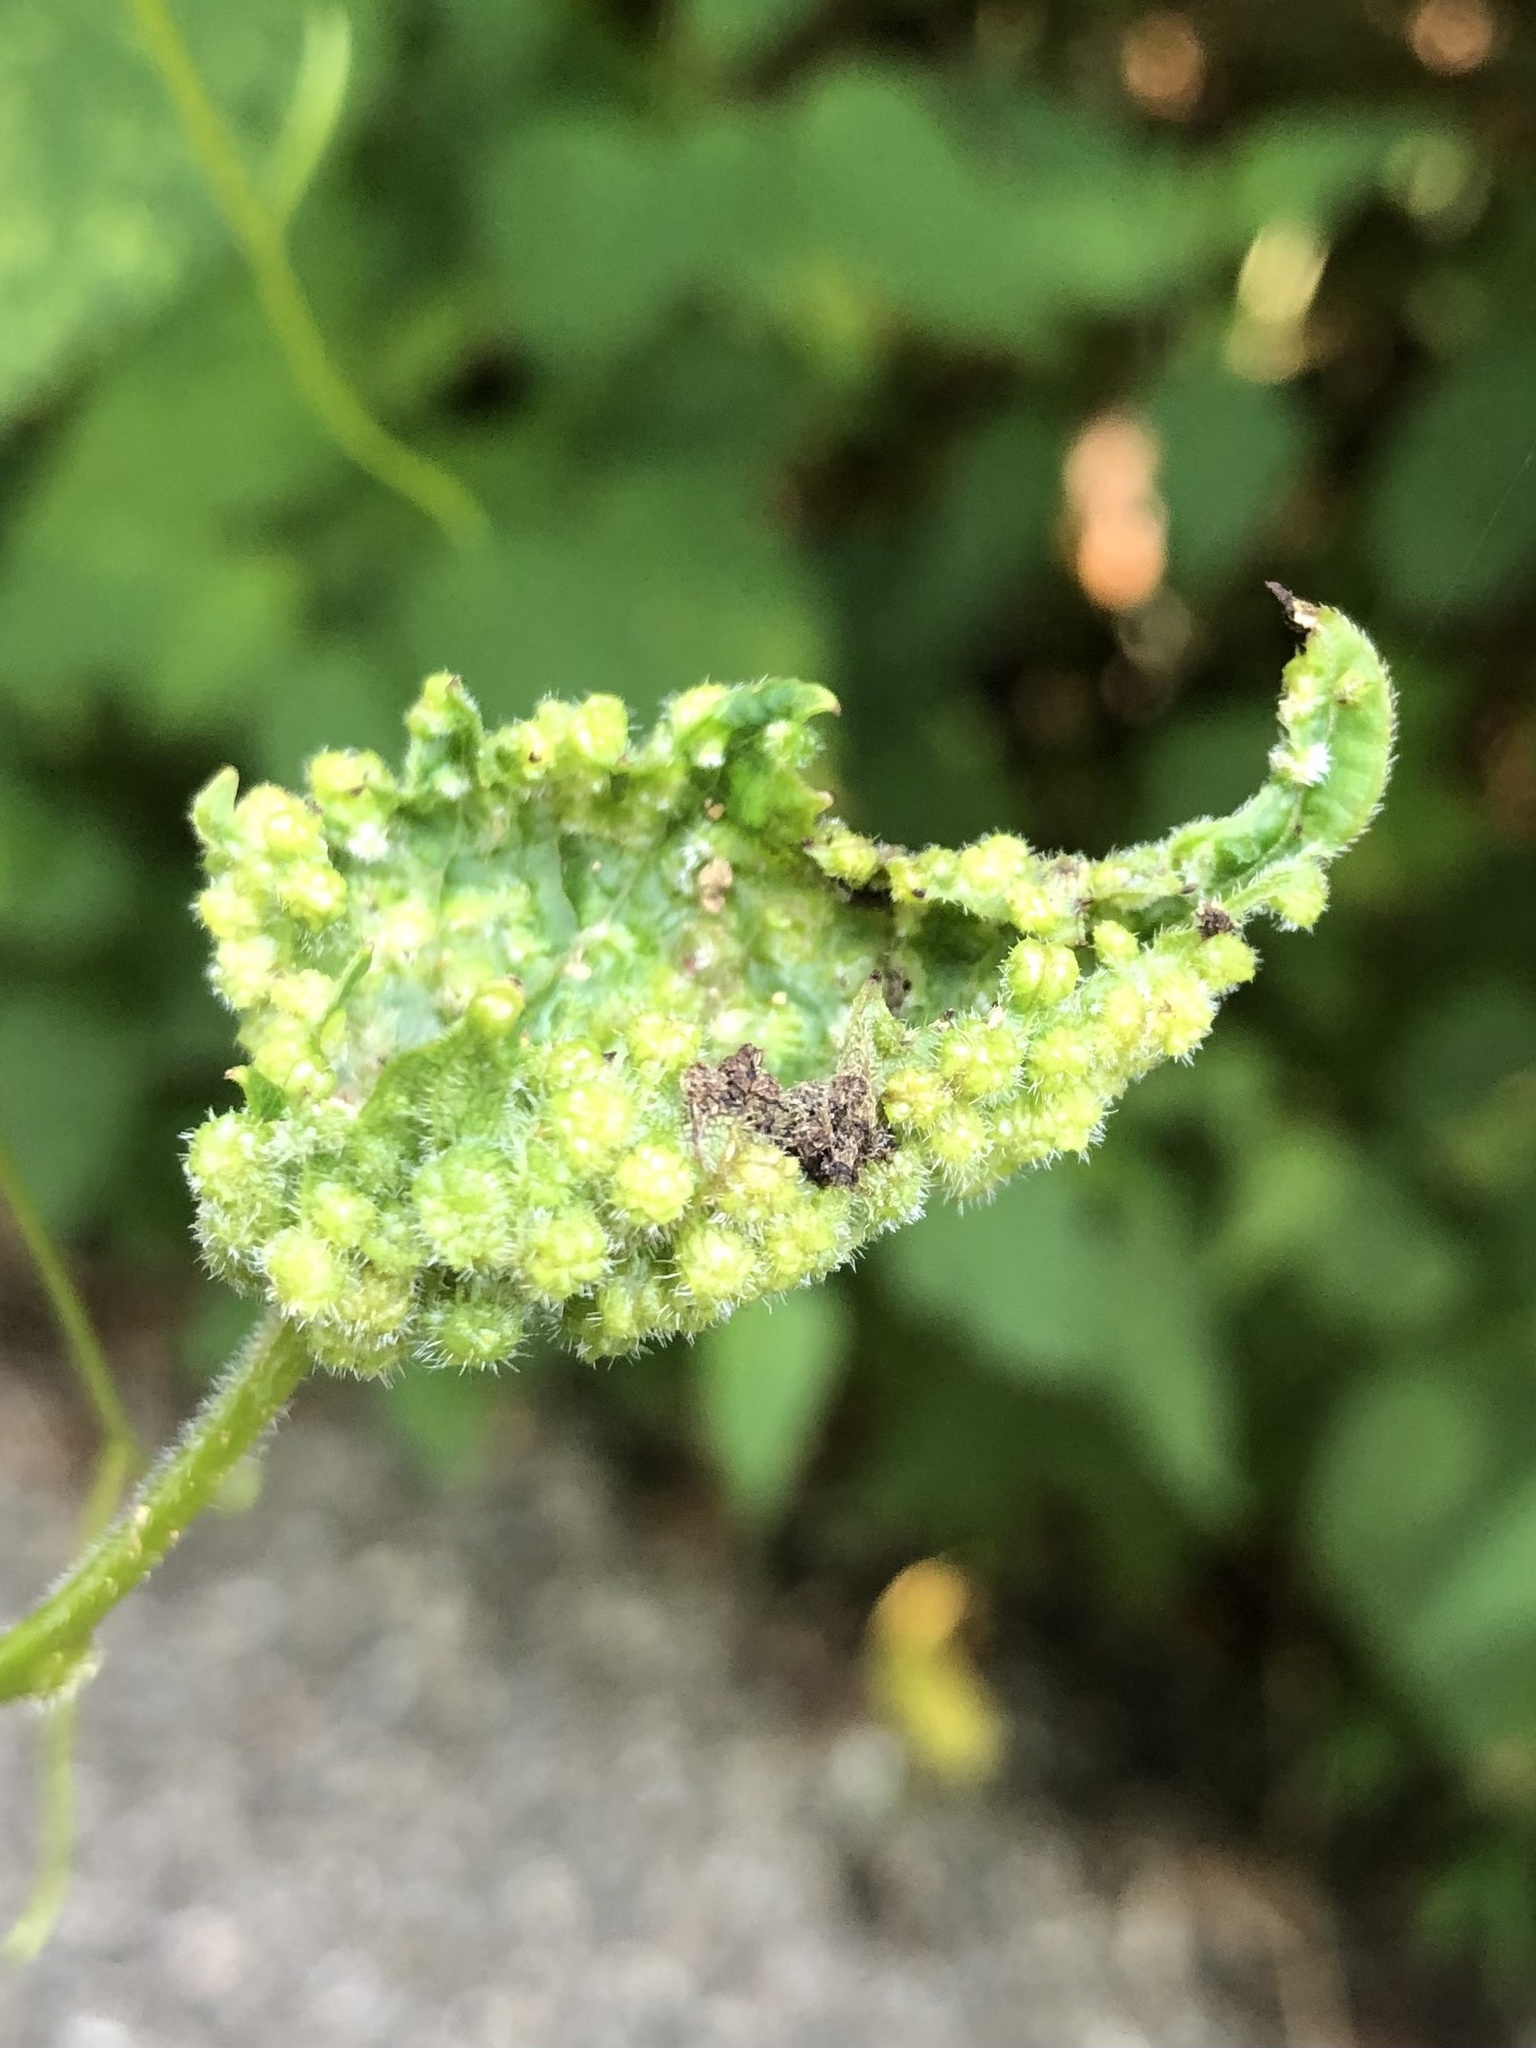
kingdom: Animalia
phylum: Arthropoda
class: Insecta
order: Hemiptera
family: Phylloxeridae
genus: Daktulosphaira
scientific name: Daktulosphaira vitifoliae
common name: Grape phylloxera
